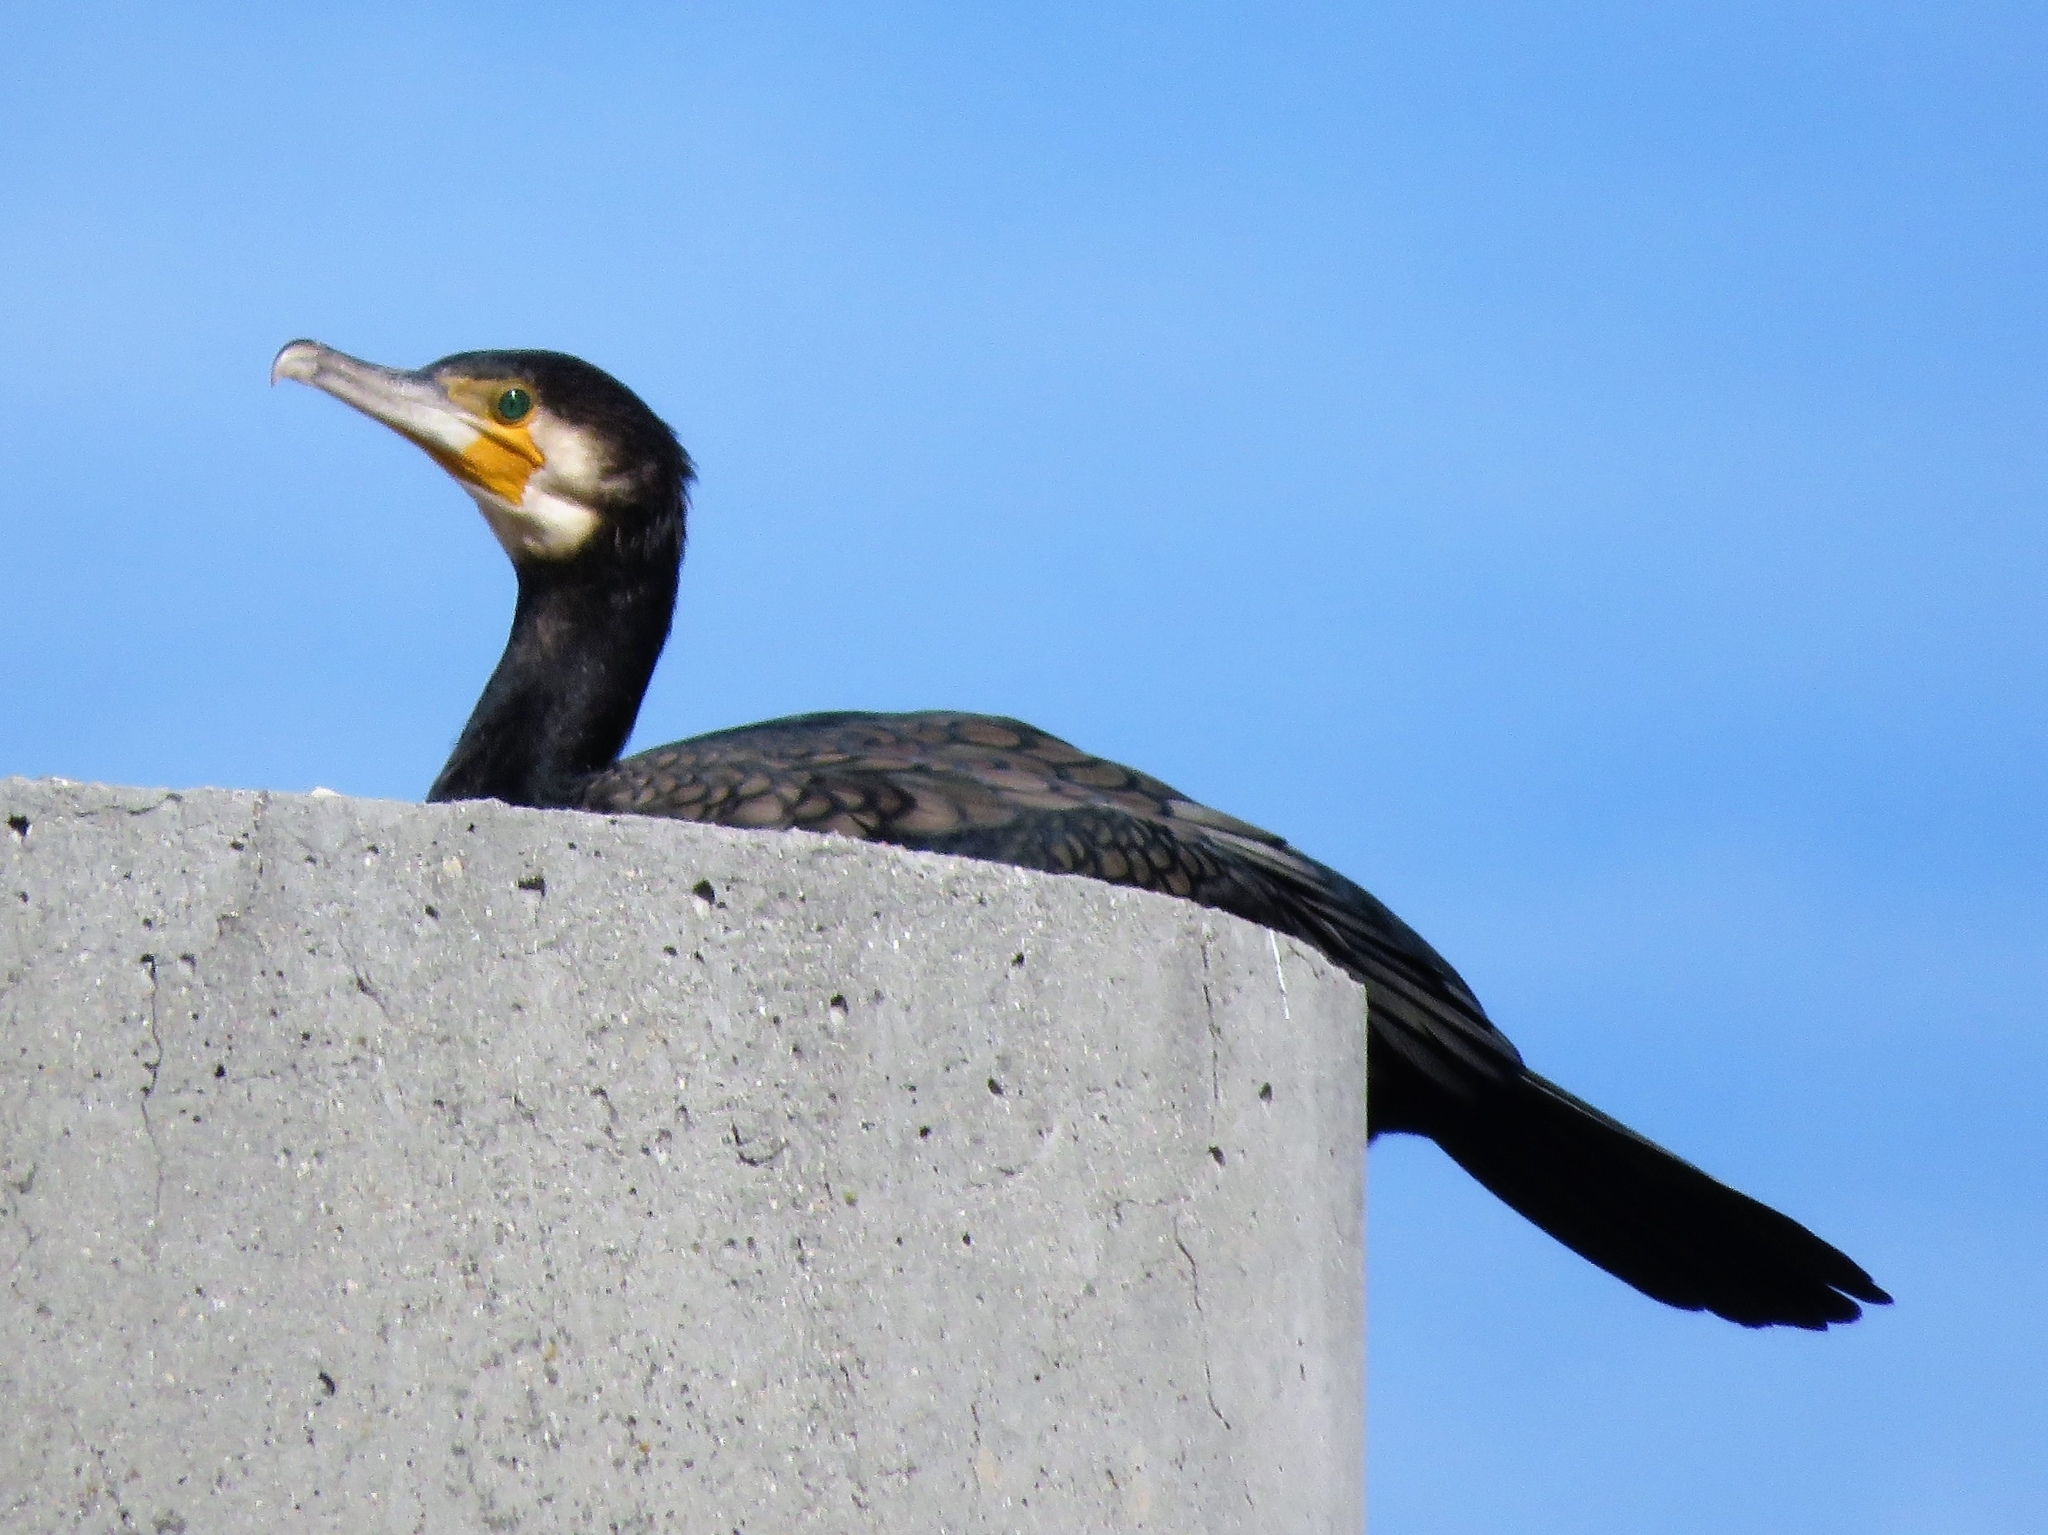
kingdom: Animalia
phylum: Chordata
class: Aves
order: Suliformes
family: Phalacrocoracidae
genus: Phalacrocorax
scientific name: Phalacrocorax carbo
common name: Great cormorant
